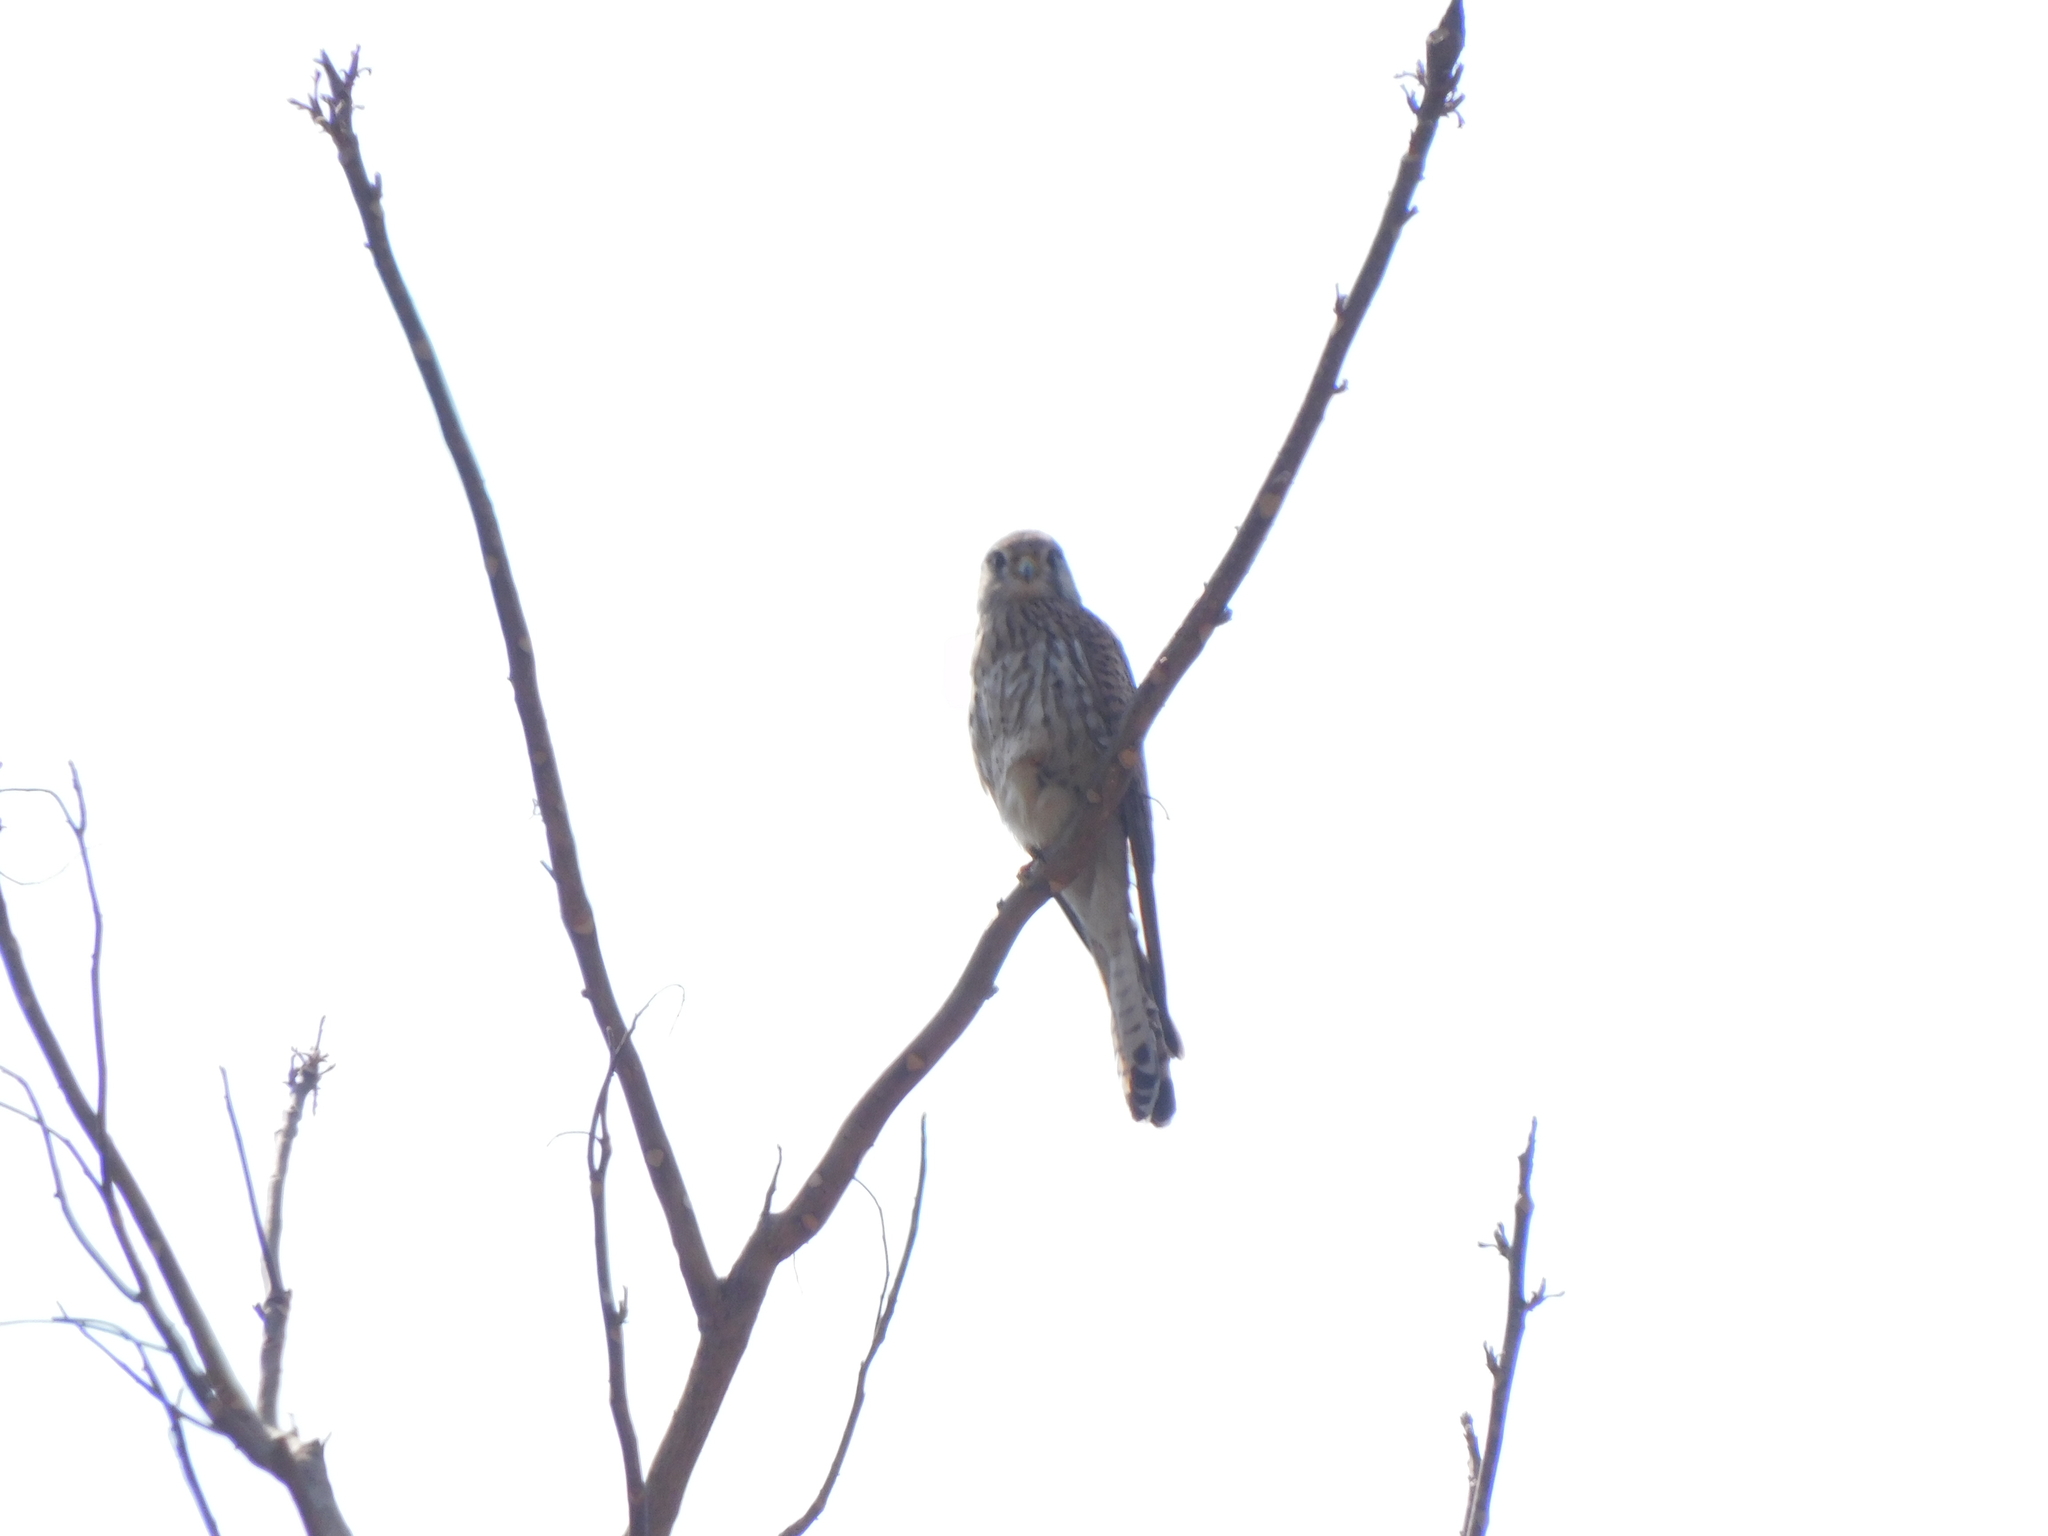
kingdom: Animalia
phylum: Chordata
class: Aves
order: Falconiformes
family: Falconidae
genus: Falco
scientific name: Falco tinnunculus
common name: Common kestrel
